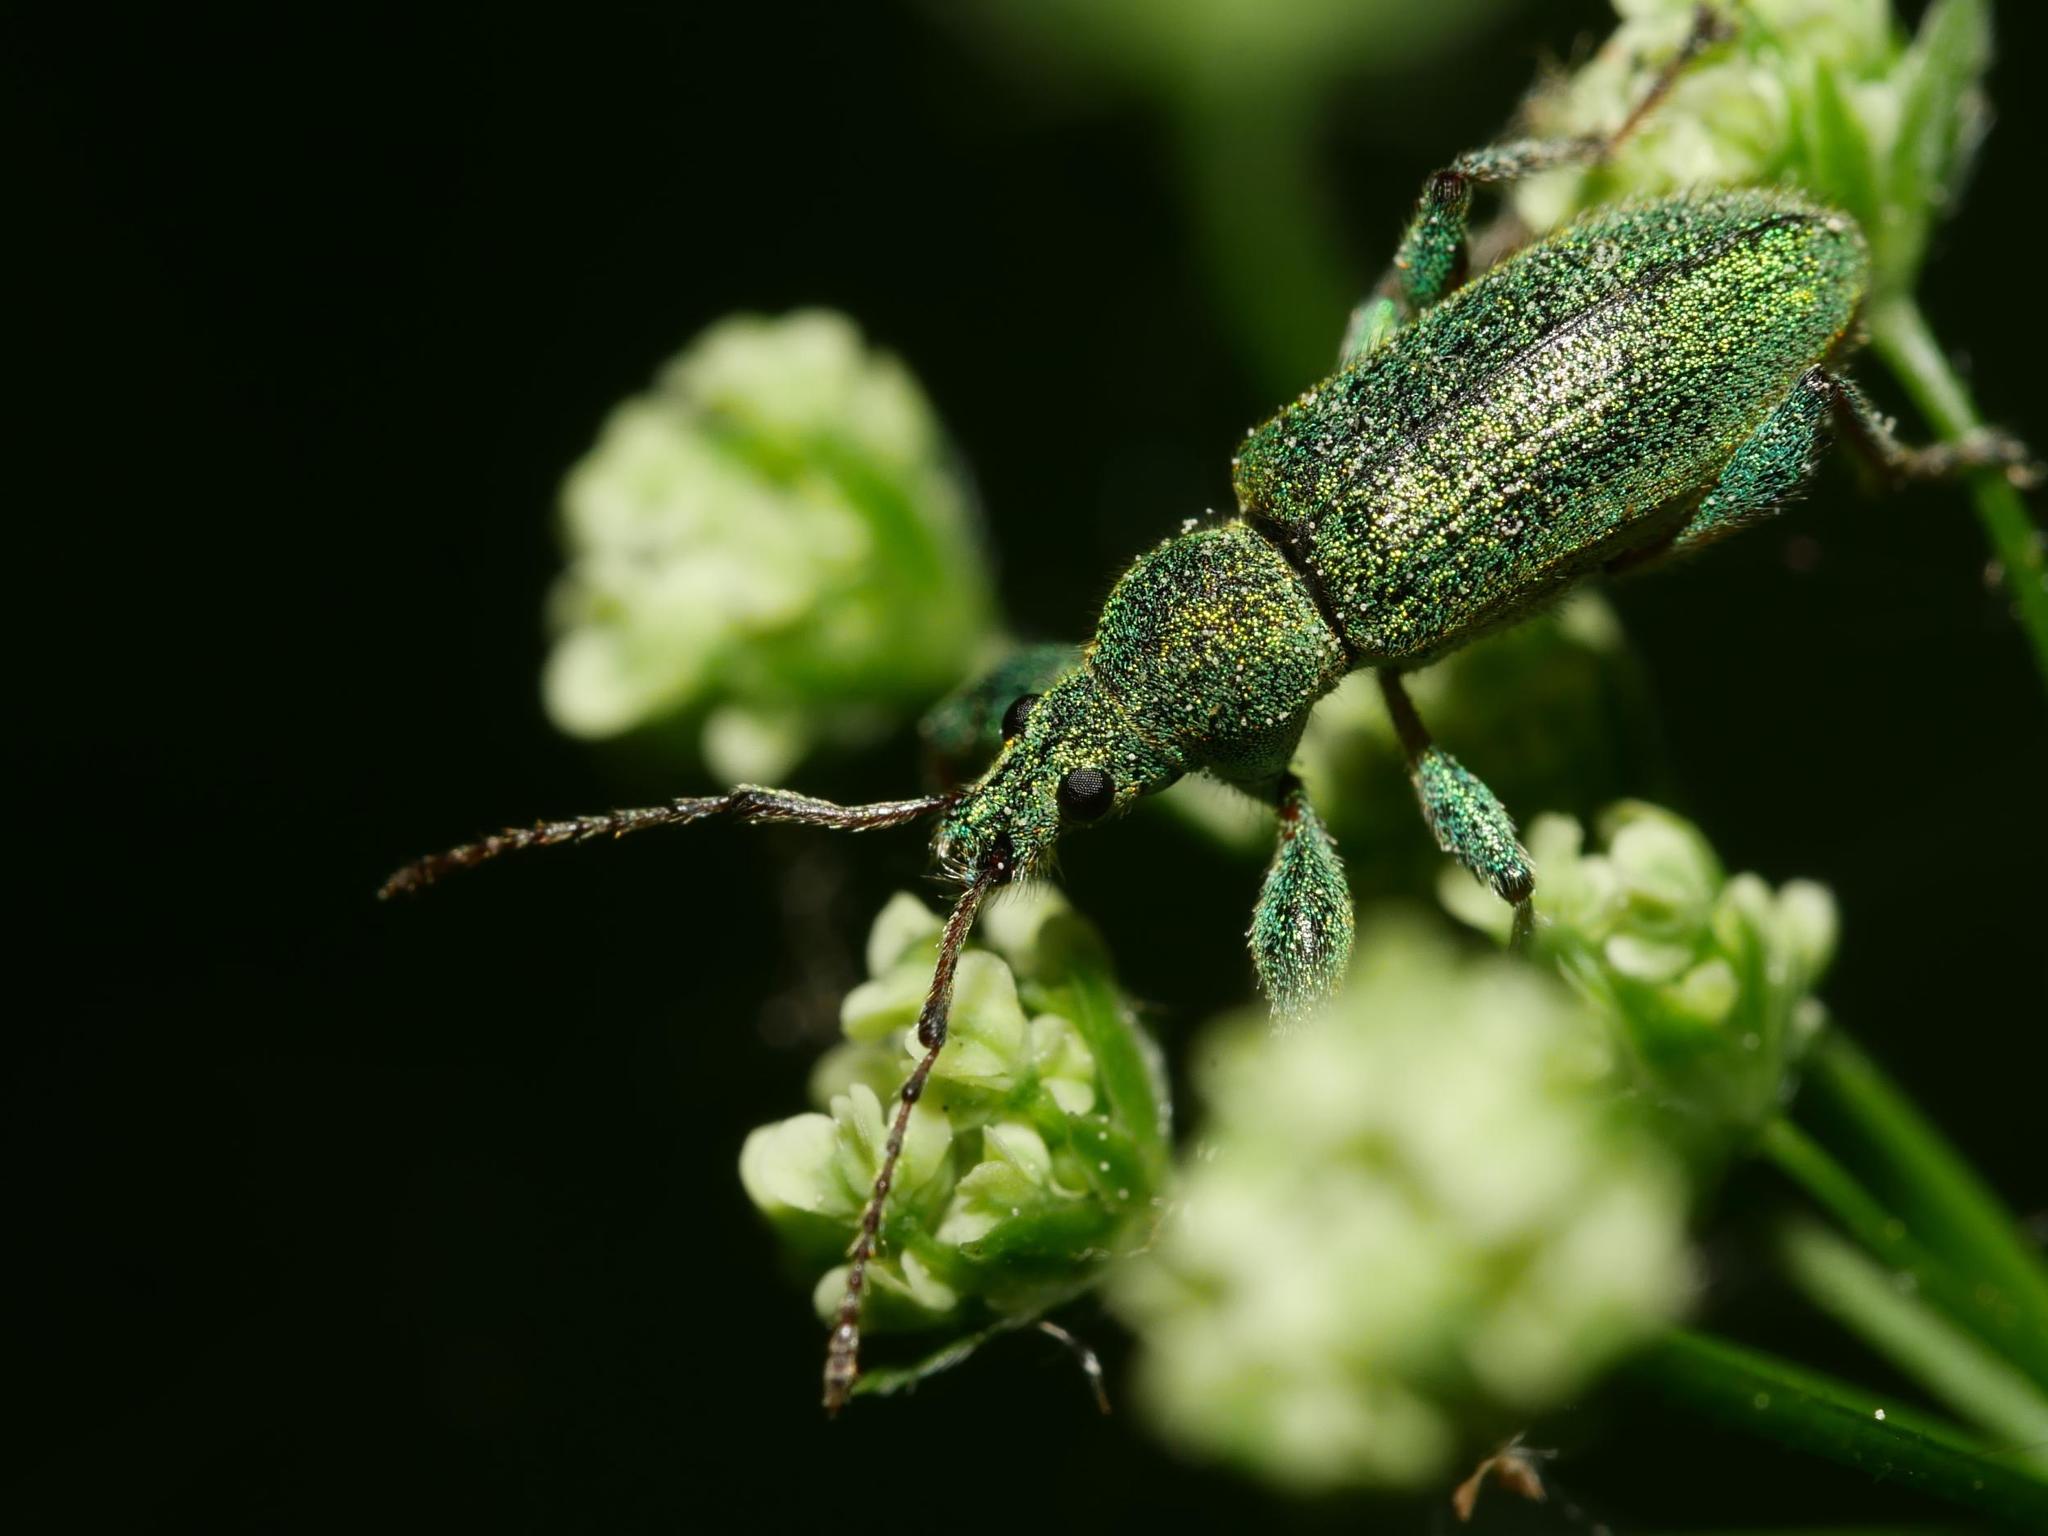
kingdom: Animalia
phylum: Arthropoda
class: Insecta
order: Coleoptera
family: Curculionidae
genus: Phyllobius
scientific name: Phyllobius arborator
